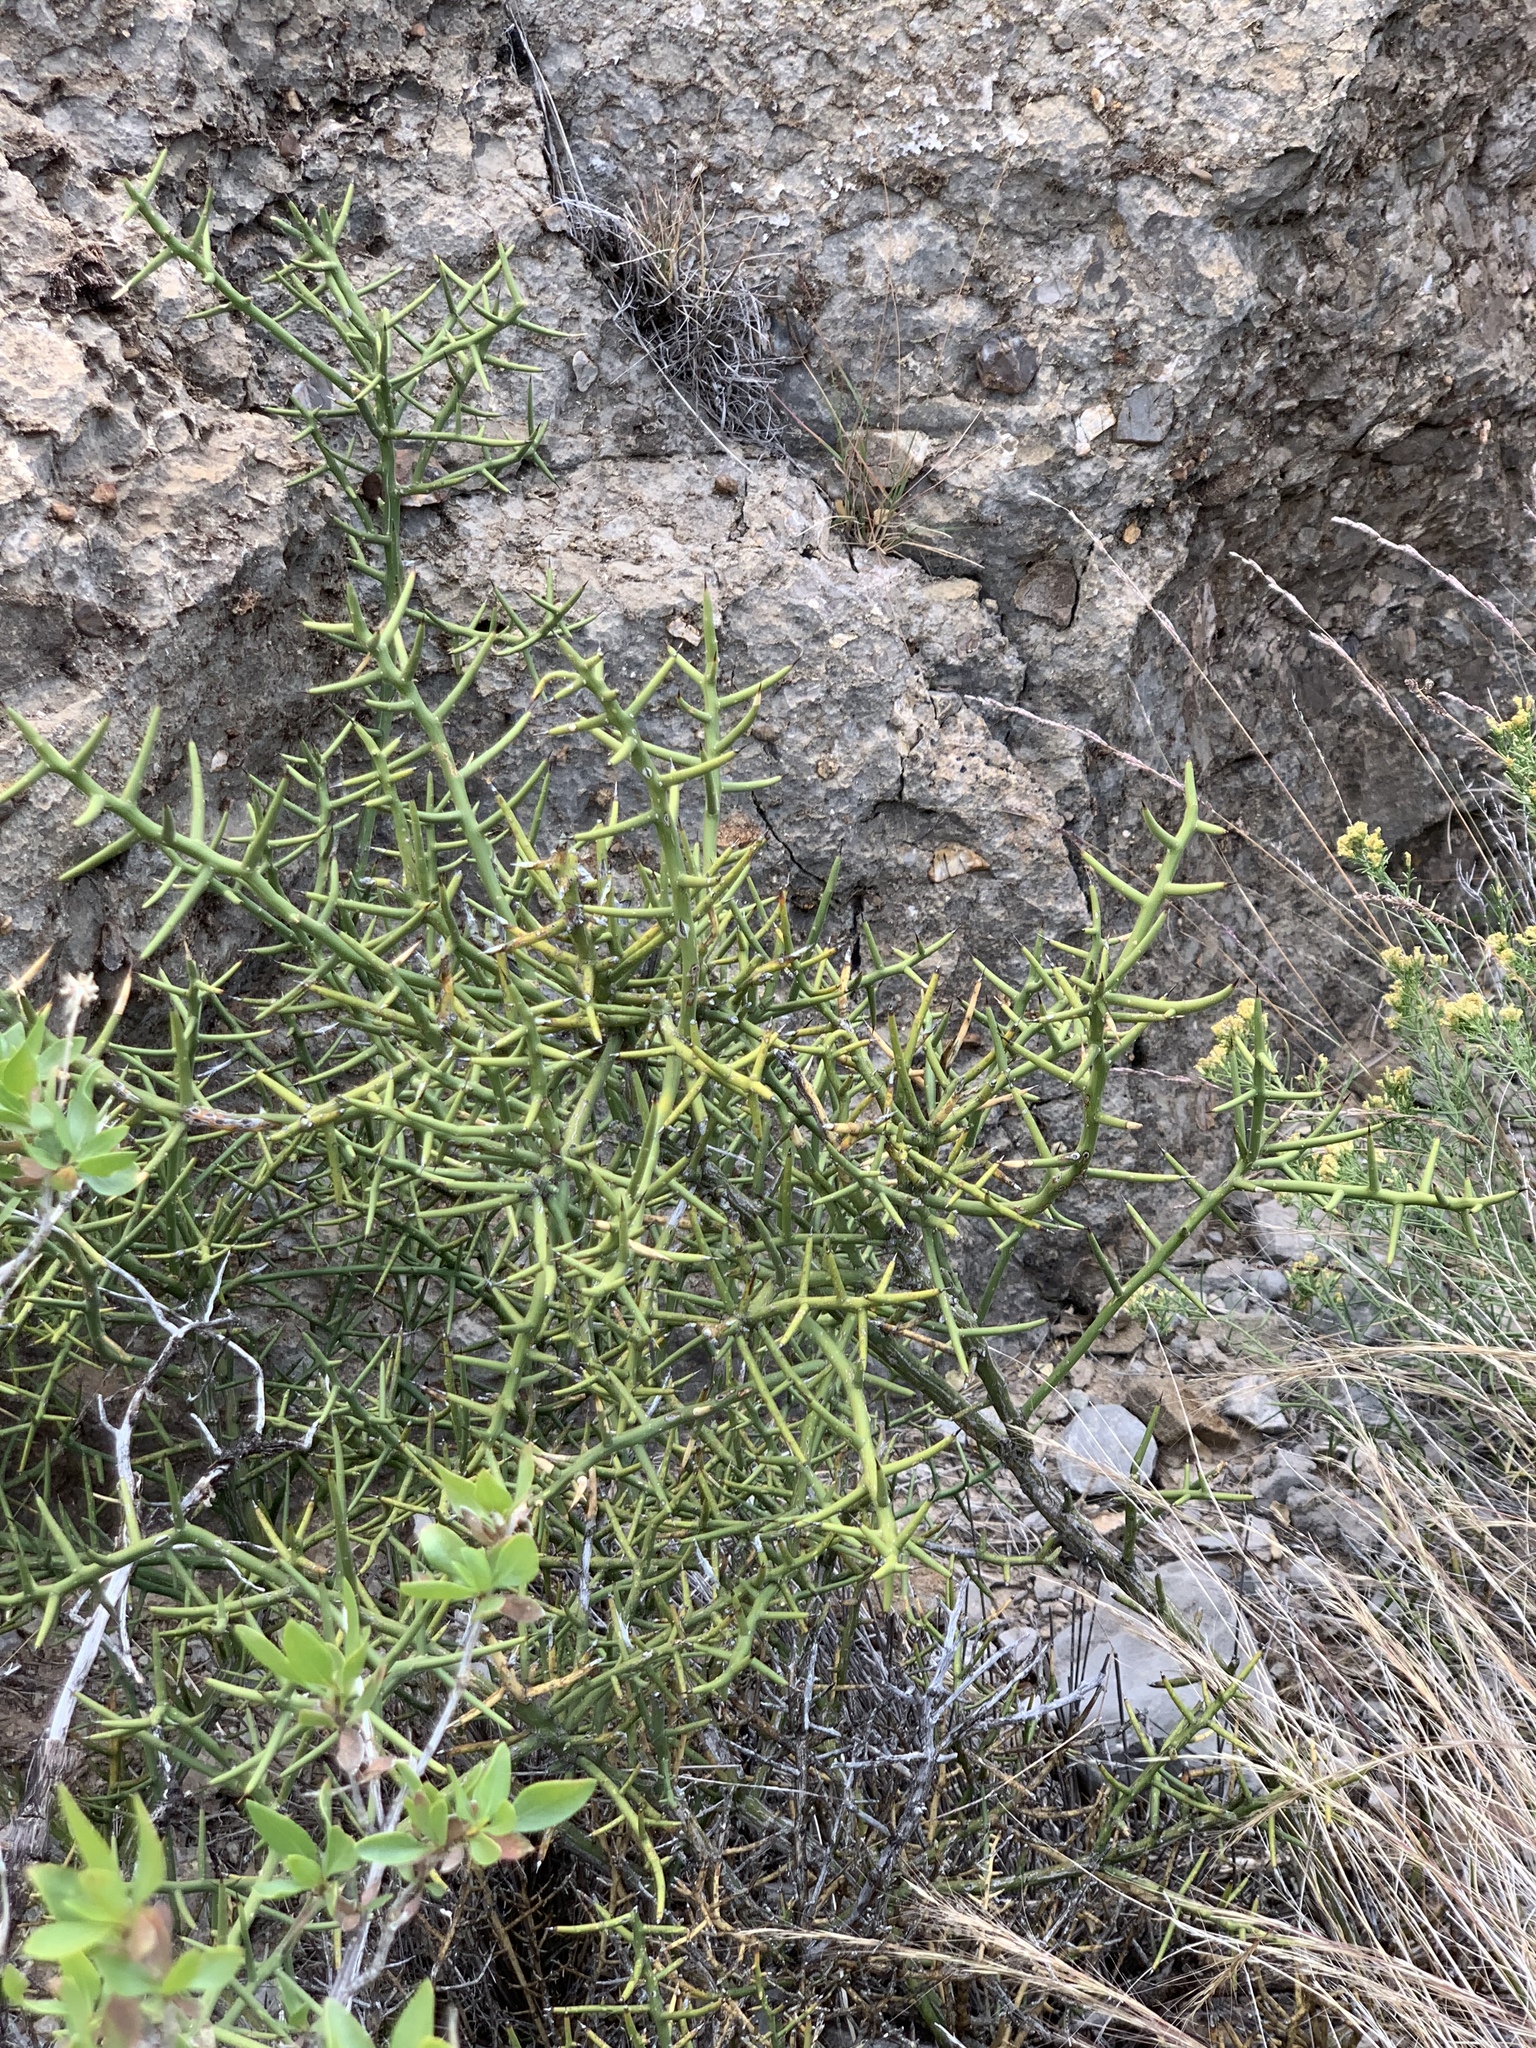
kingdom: Plantae
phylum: Tracheophyta
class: Magnoliopsida
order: Brassicales
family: Koeberliniaceae
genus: Koeberlinia
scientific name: Koeberlinia spinosa
